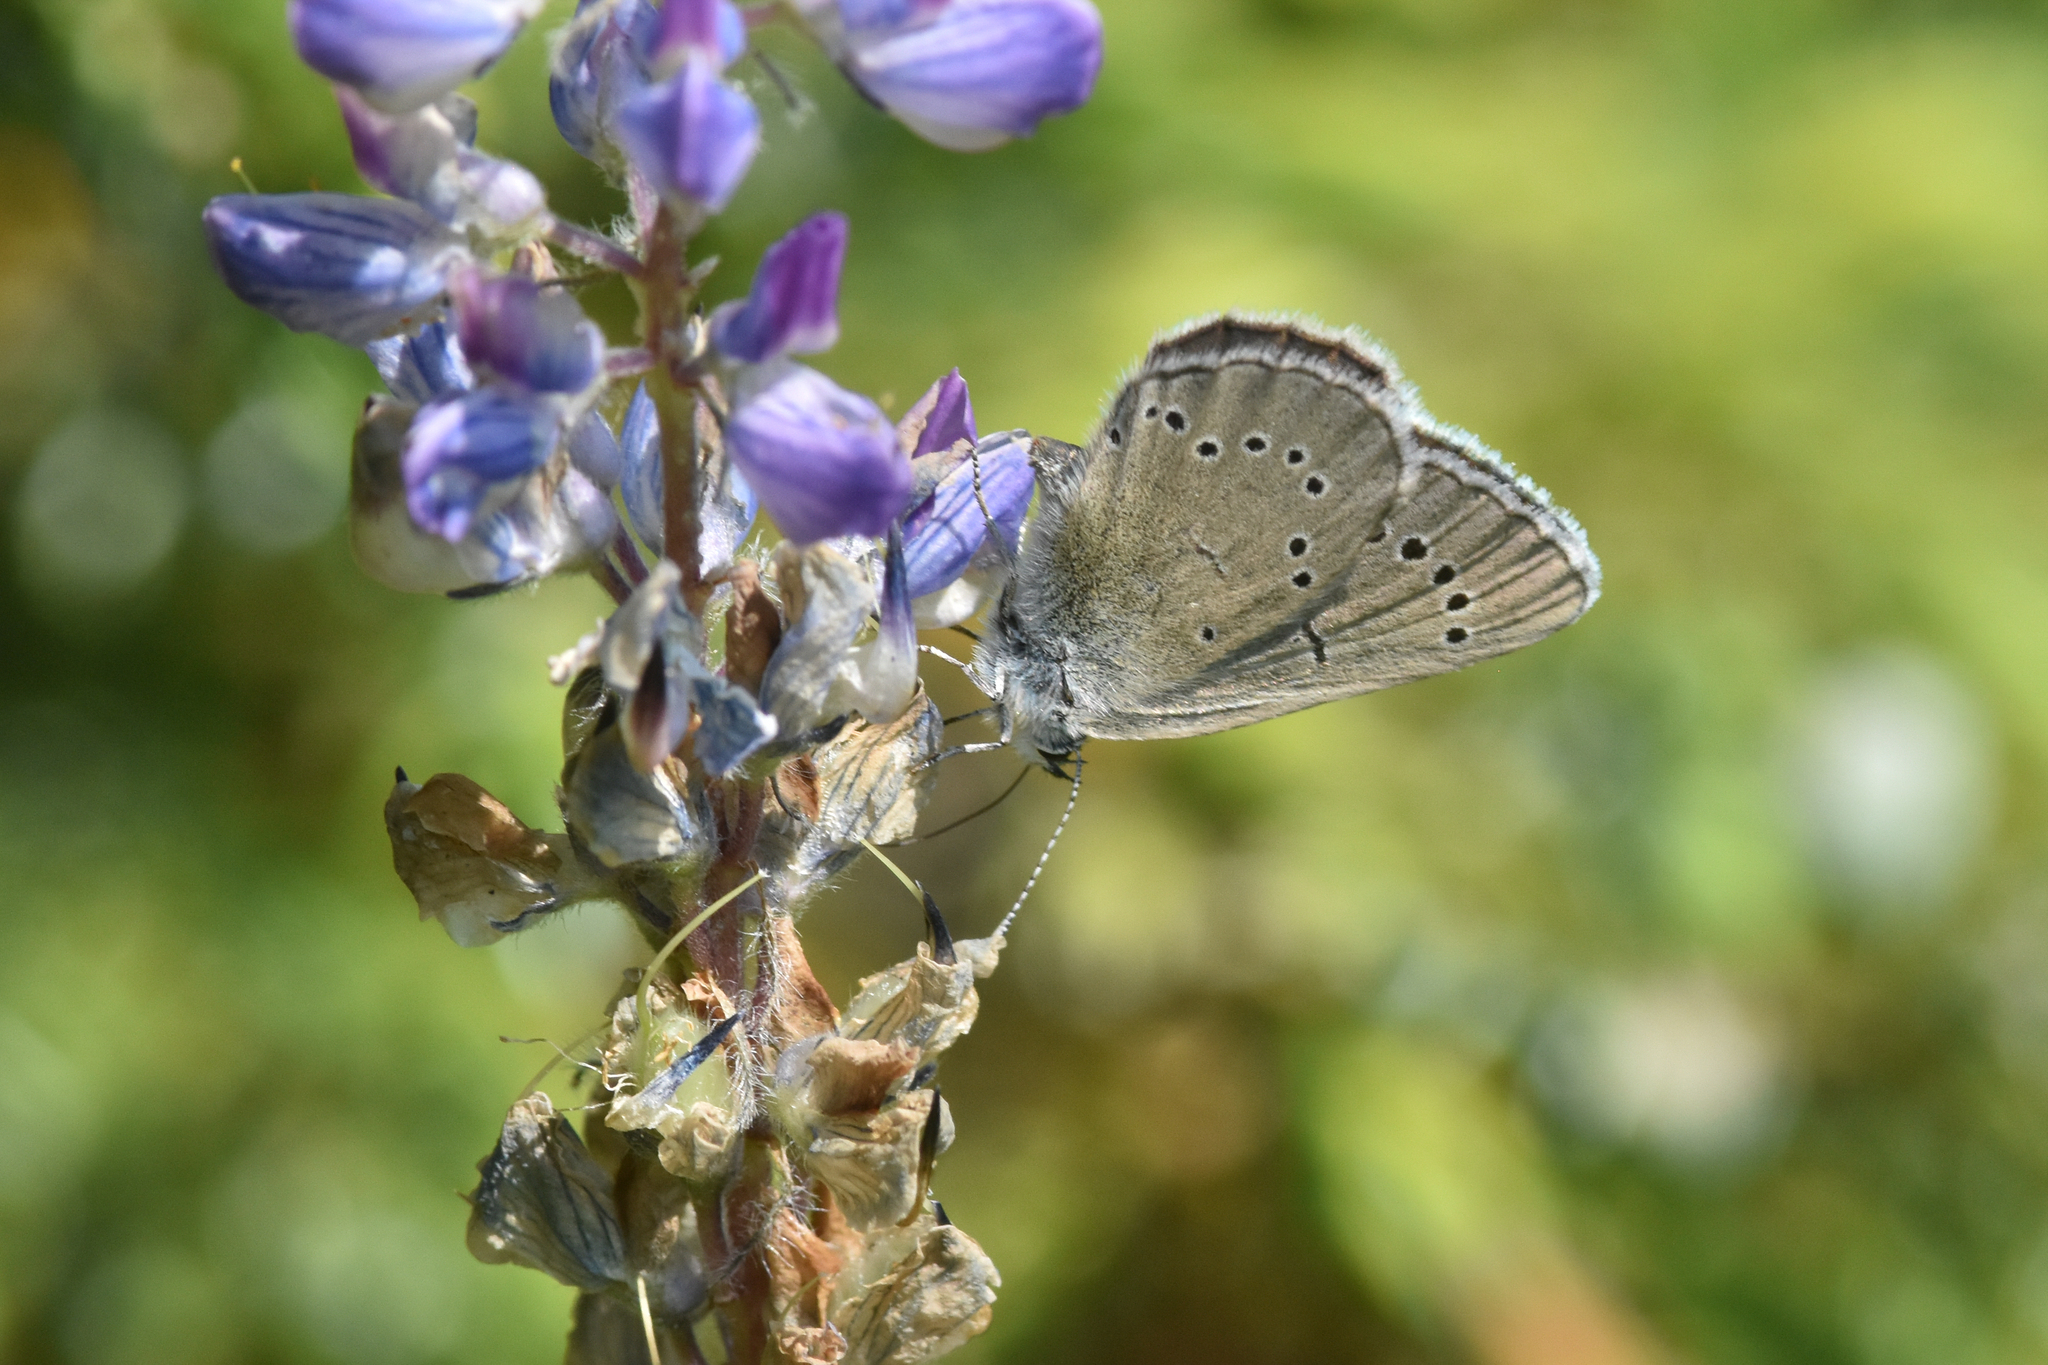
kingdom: Animalia
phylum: Arthropoda
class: Insecta
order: Lepidoptera
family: Lycaenidae
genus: Glaucopsyche
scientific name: Glaucopsyche lygdamus
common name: Silvery blue
